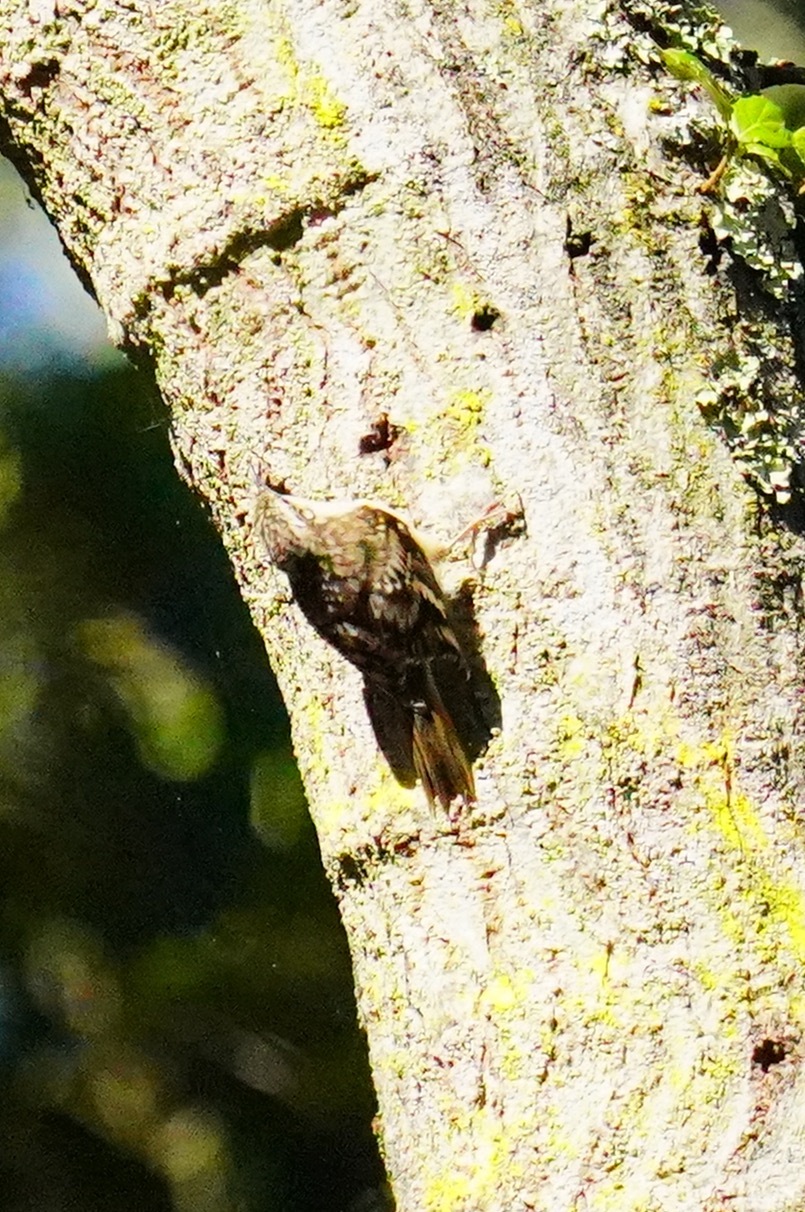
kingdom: Animalia
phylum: Chordata
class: Aves
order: Passeriformes
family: Certhiidae
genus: Certhia
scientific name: Certhia americana
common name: Brown creeper
